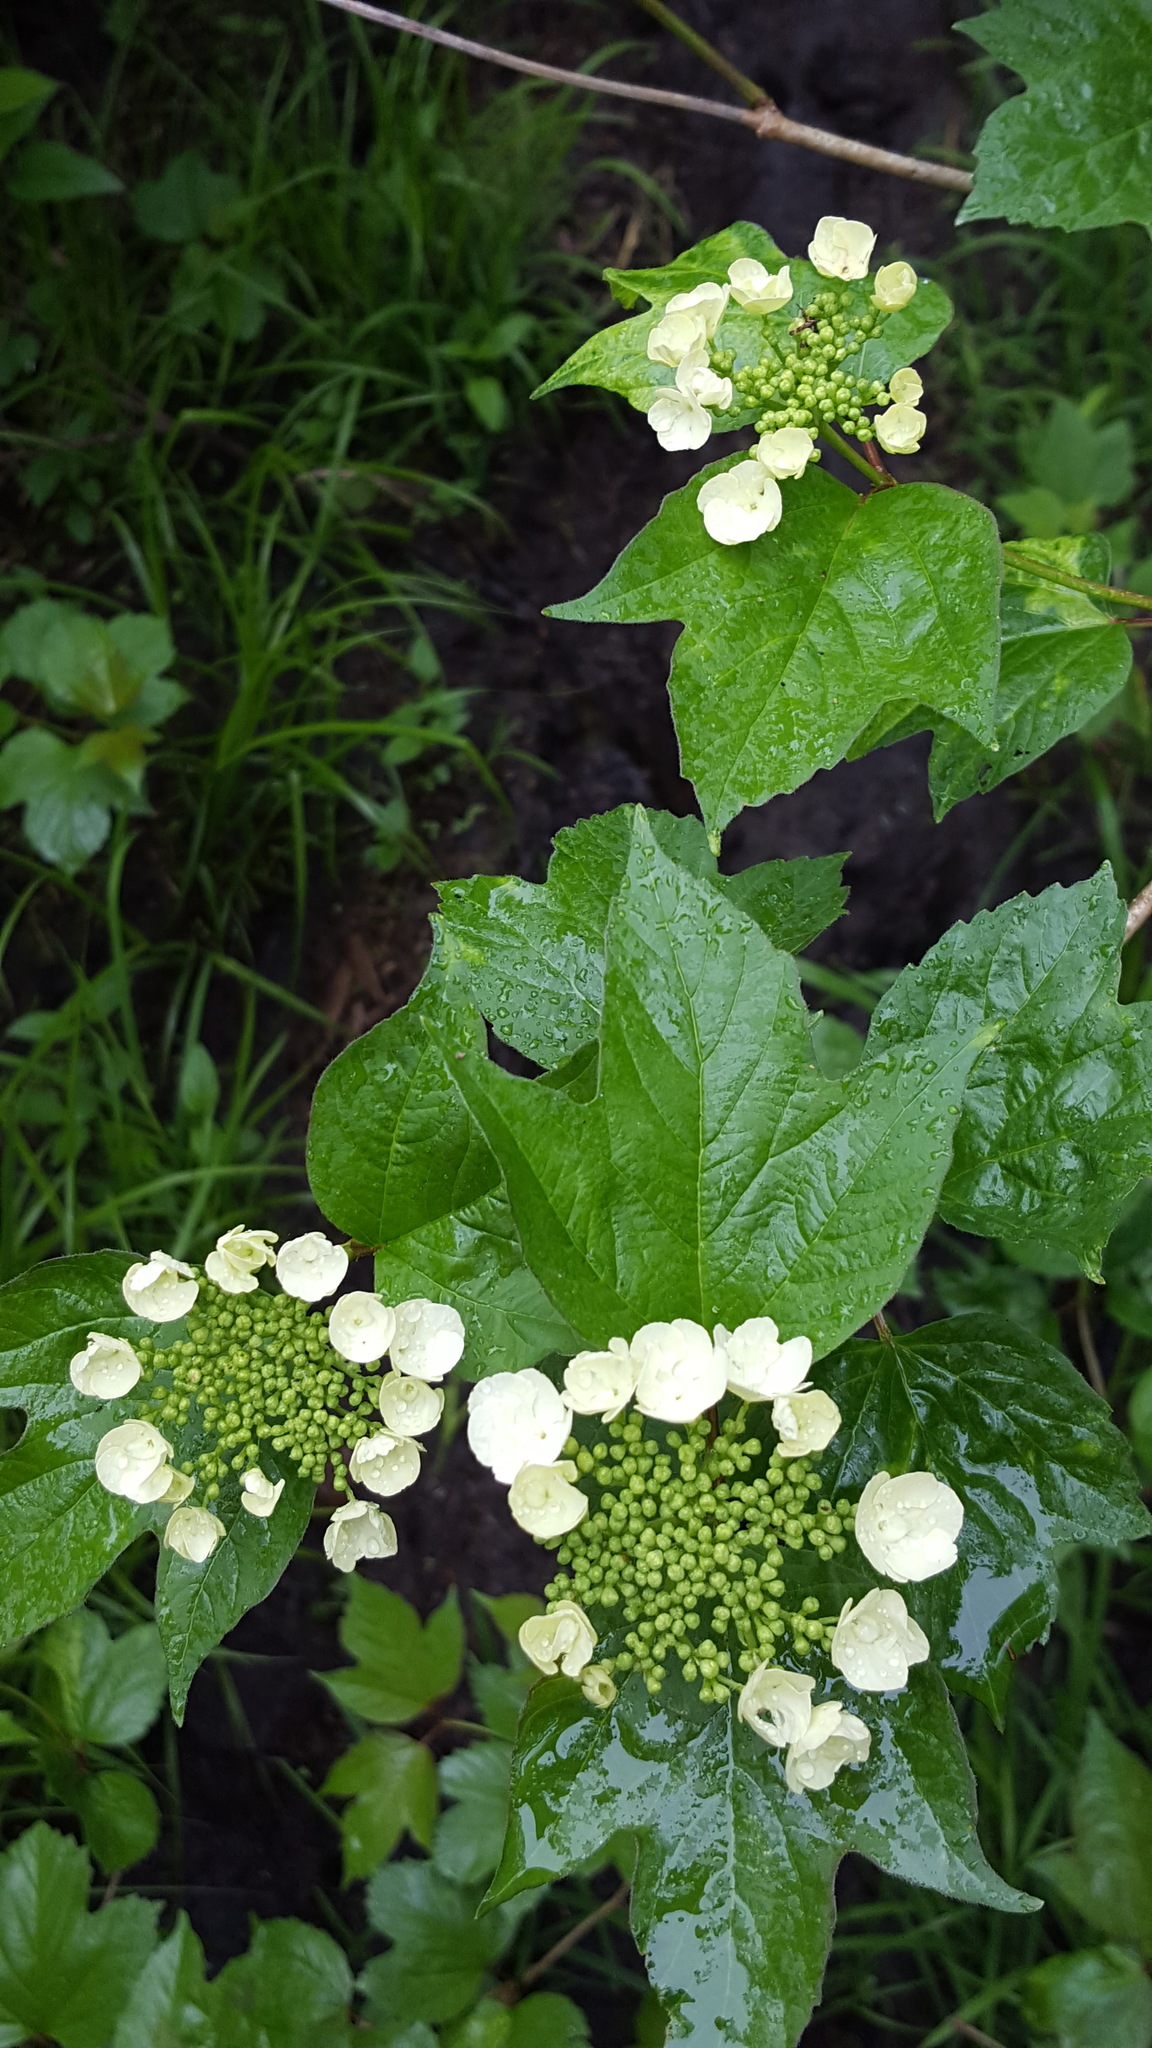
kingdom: Plantae
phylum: Tracheophyta
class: Magnoliopsida
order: Dipsacales
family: Viburnaceae
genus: Viburnum
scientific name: Viburnum trilobum
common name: American cranberrybush
